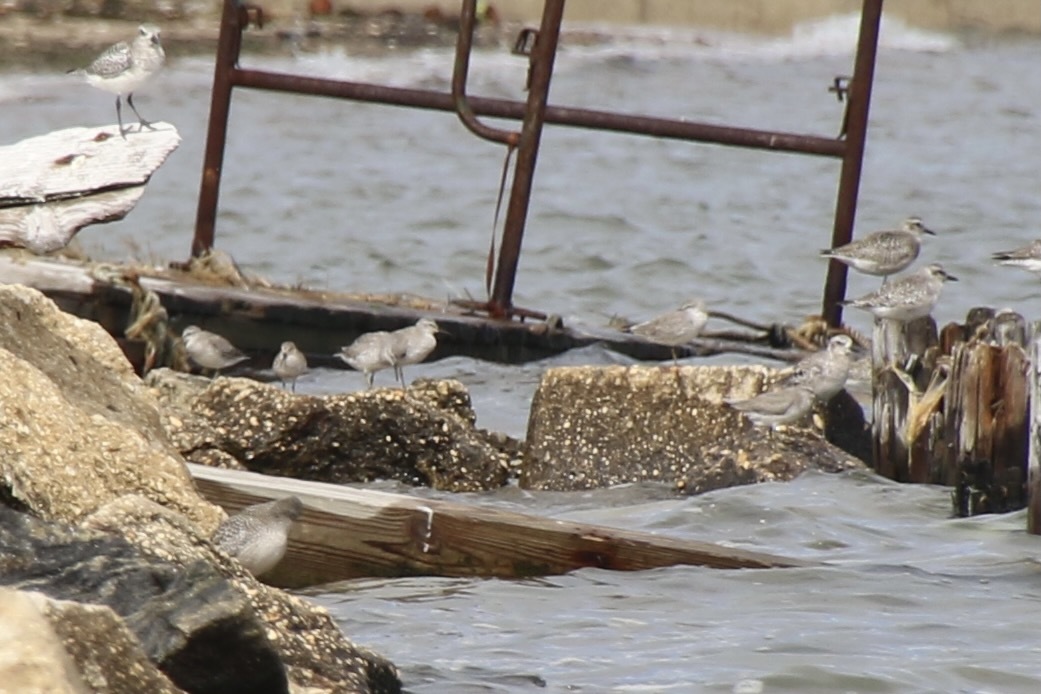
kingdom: Animalia
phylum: Chordata
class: Aves
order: Charadriiformes
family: Scolopacidae
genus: Calidris
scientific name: Calidris canutus
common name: Red knot
